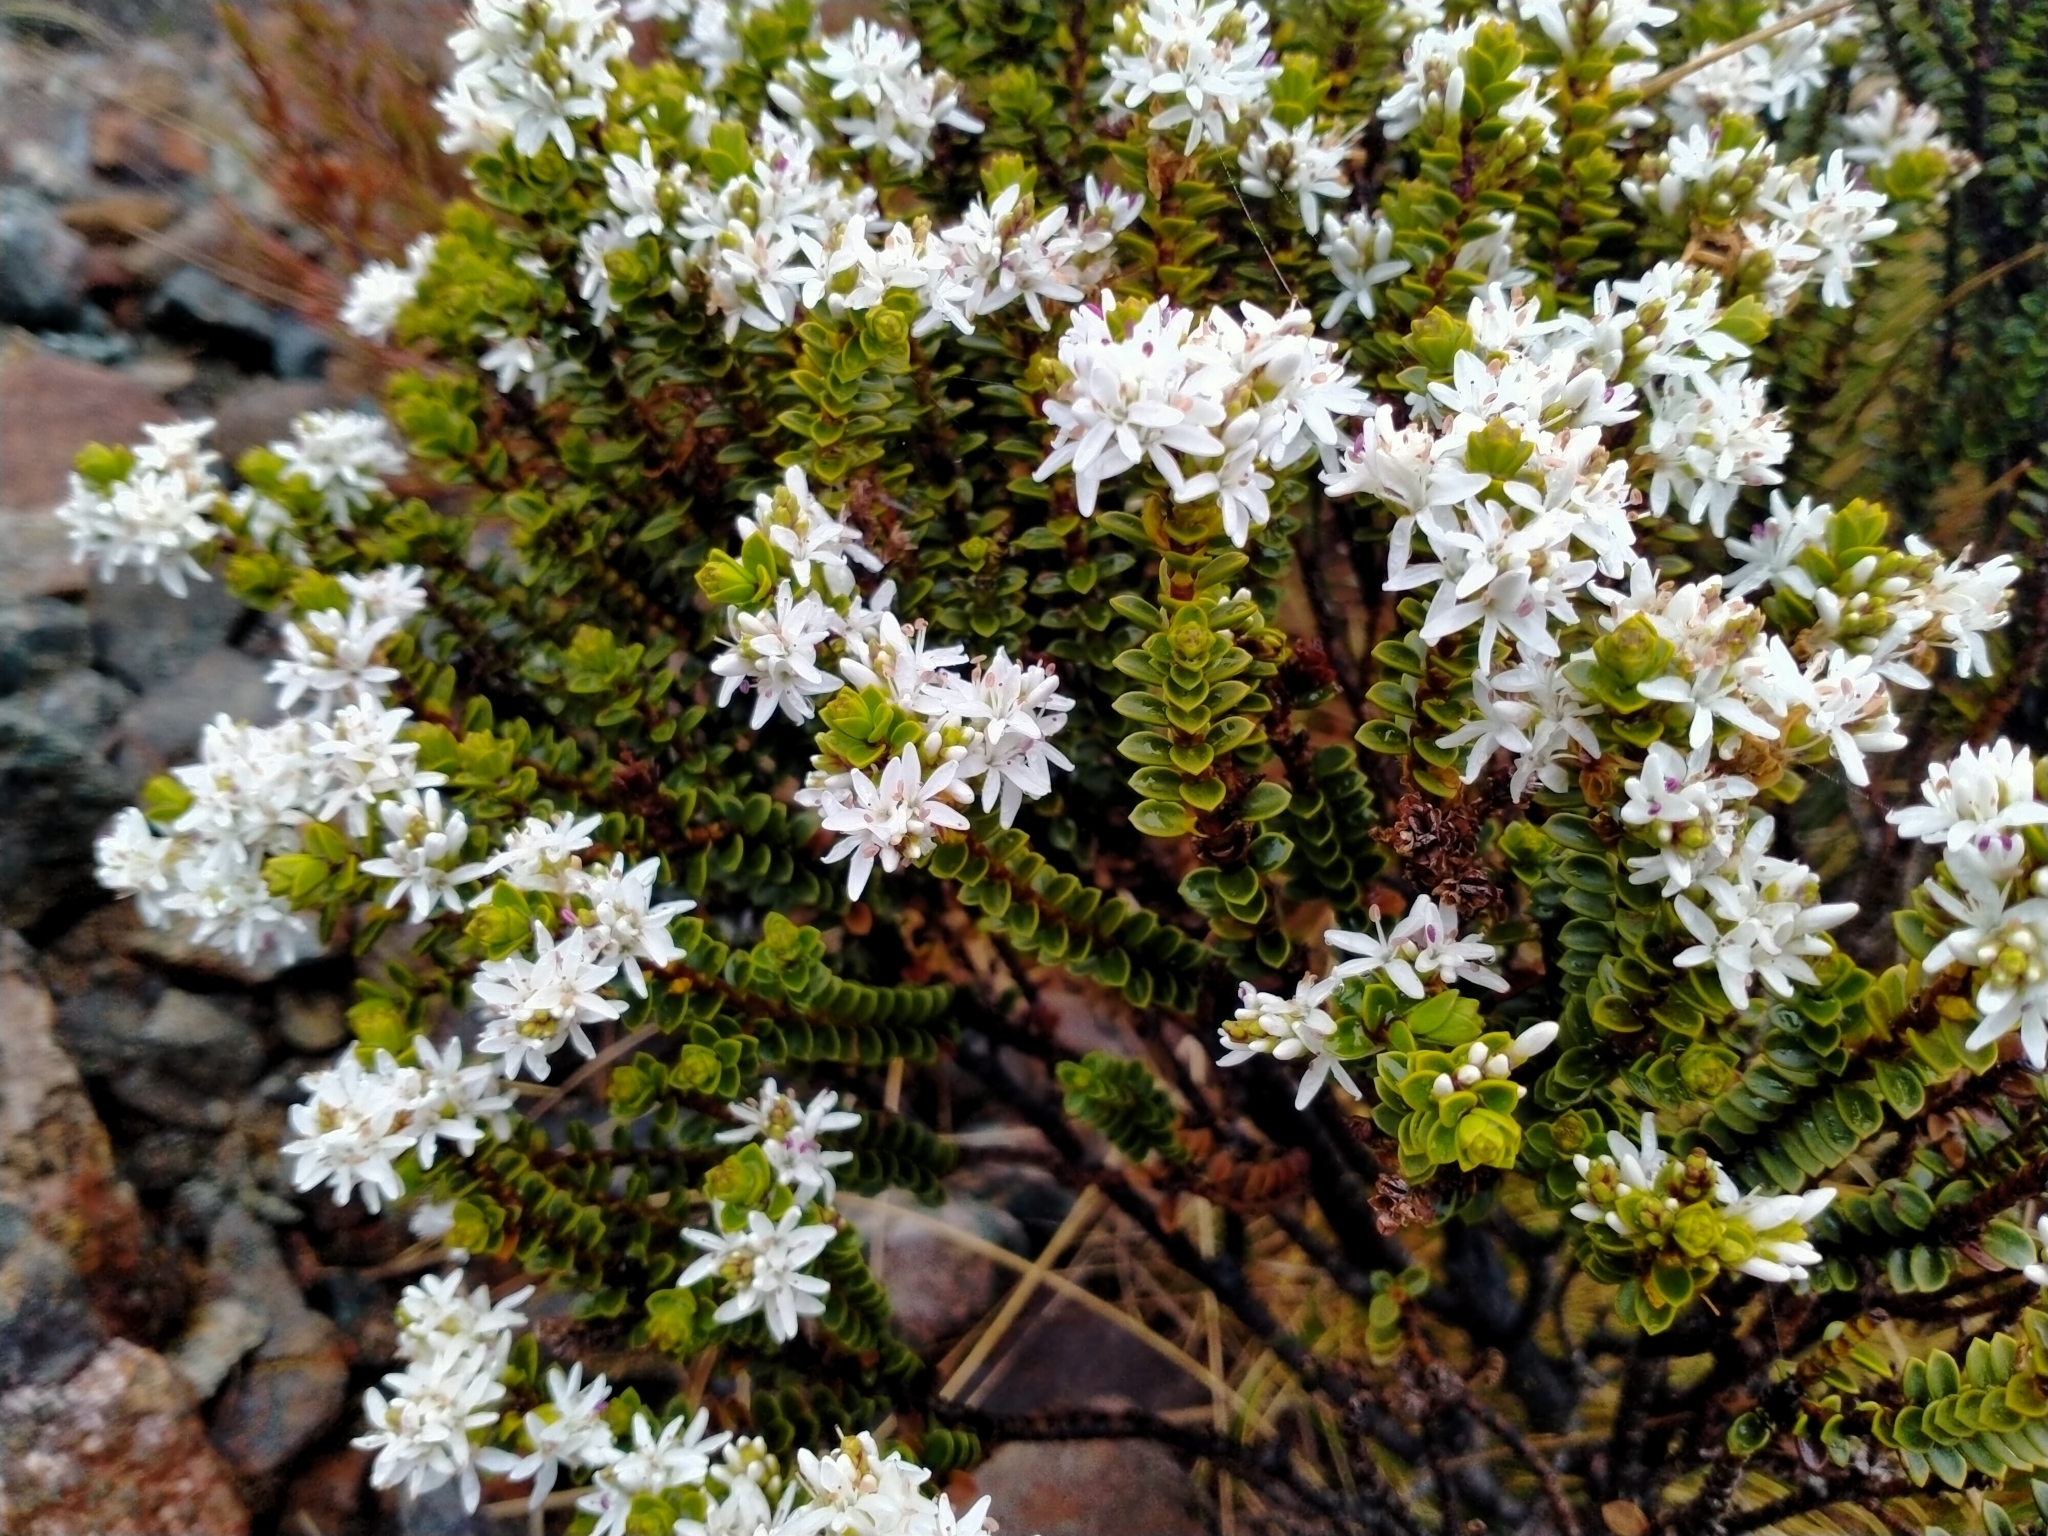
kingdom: Plantae
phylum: Tracheophyta
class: Magnoliopsida
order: Lamiales
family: Plantaginaceae
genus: Veronica
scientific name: Veronica pauciramosa
